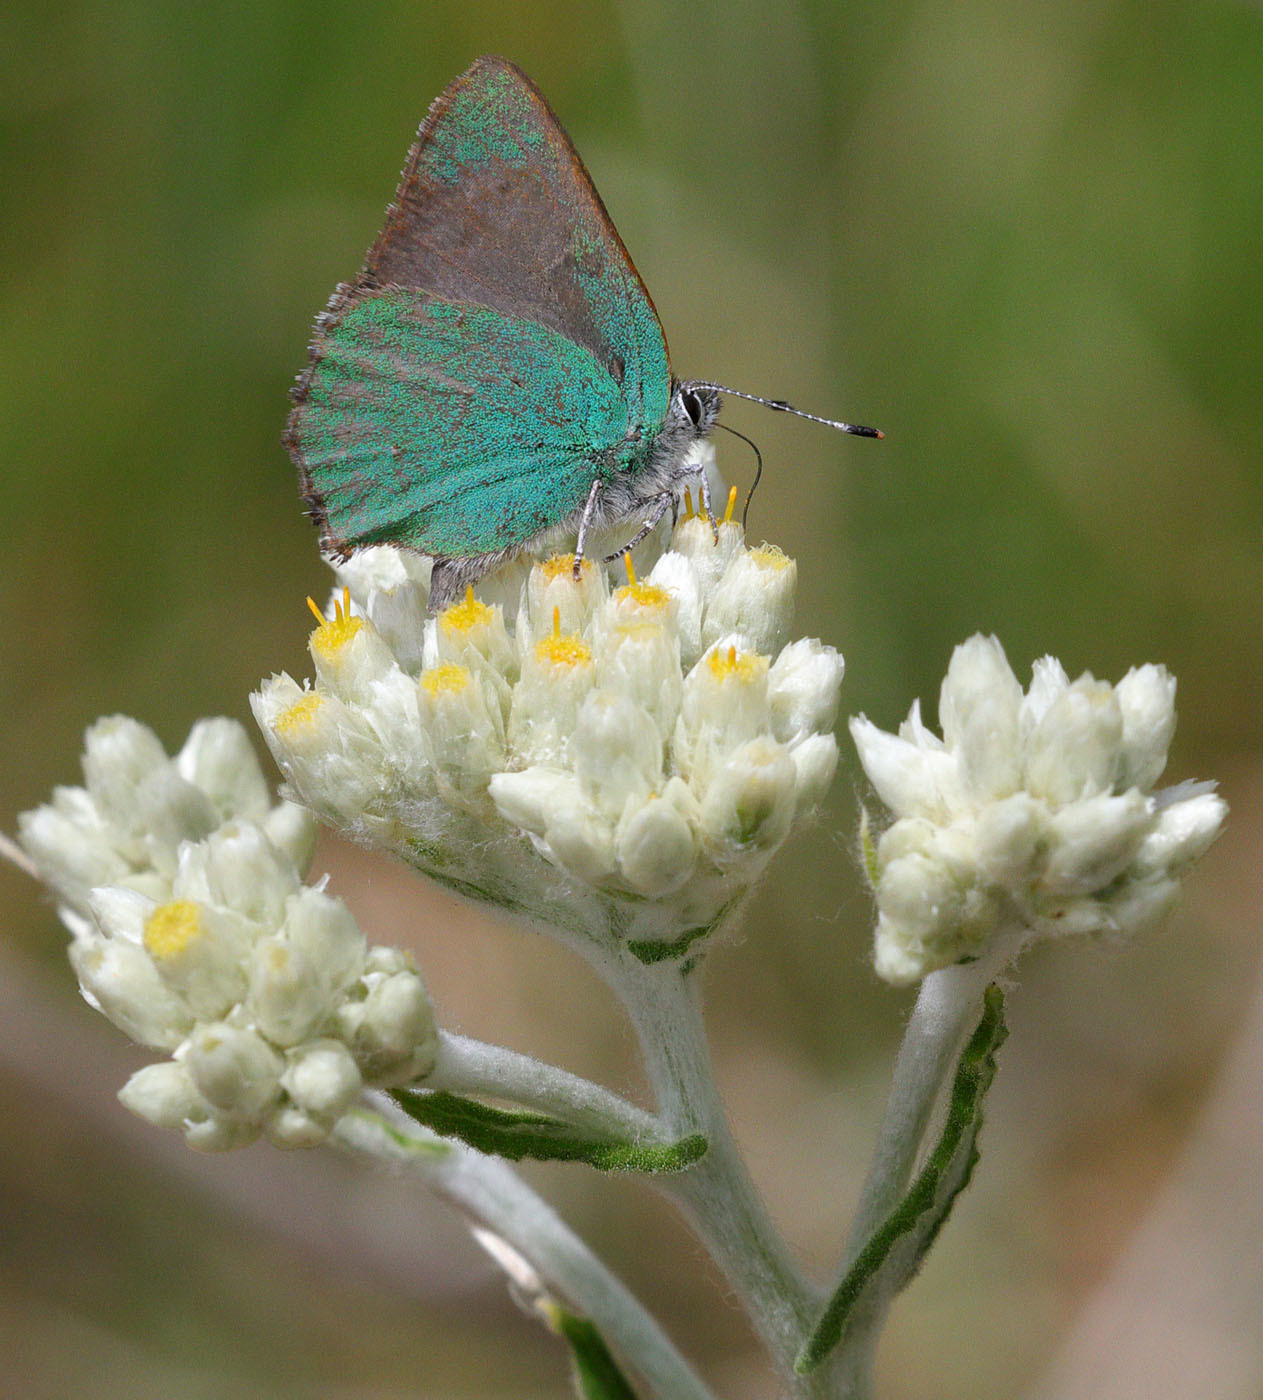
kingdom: Animalia
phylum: Arthropoda
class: Insecta
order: Lepidoptera
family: Lycaenidae
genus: Callophrys
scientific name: Callophrys dumetorum
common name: Bramble hairstreak
